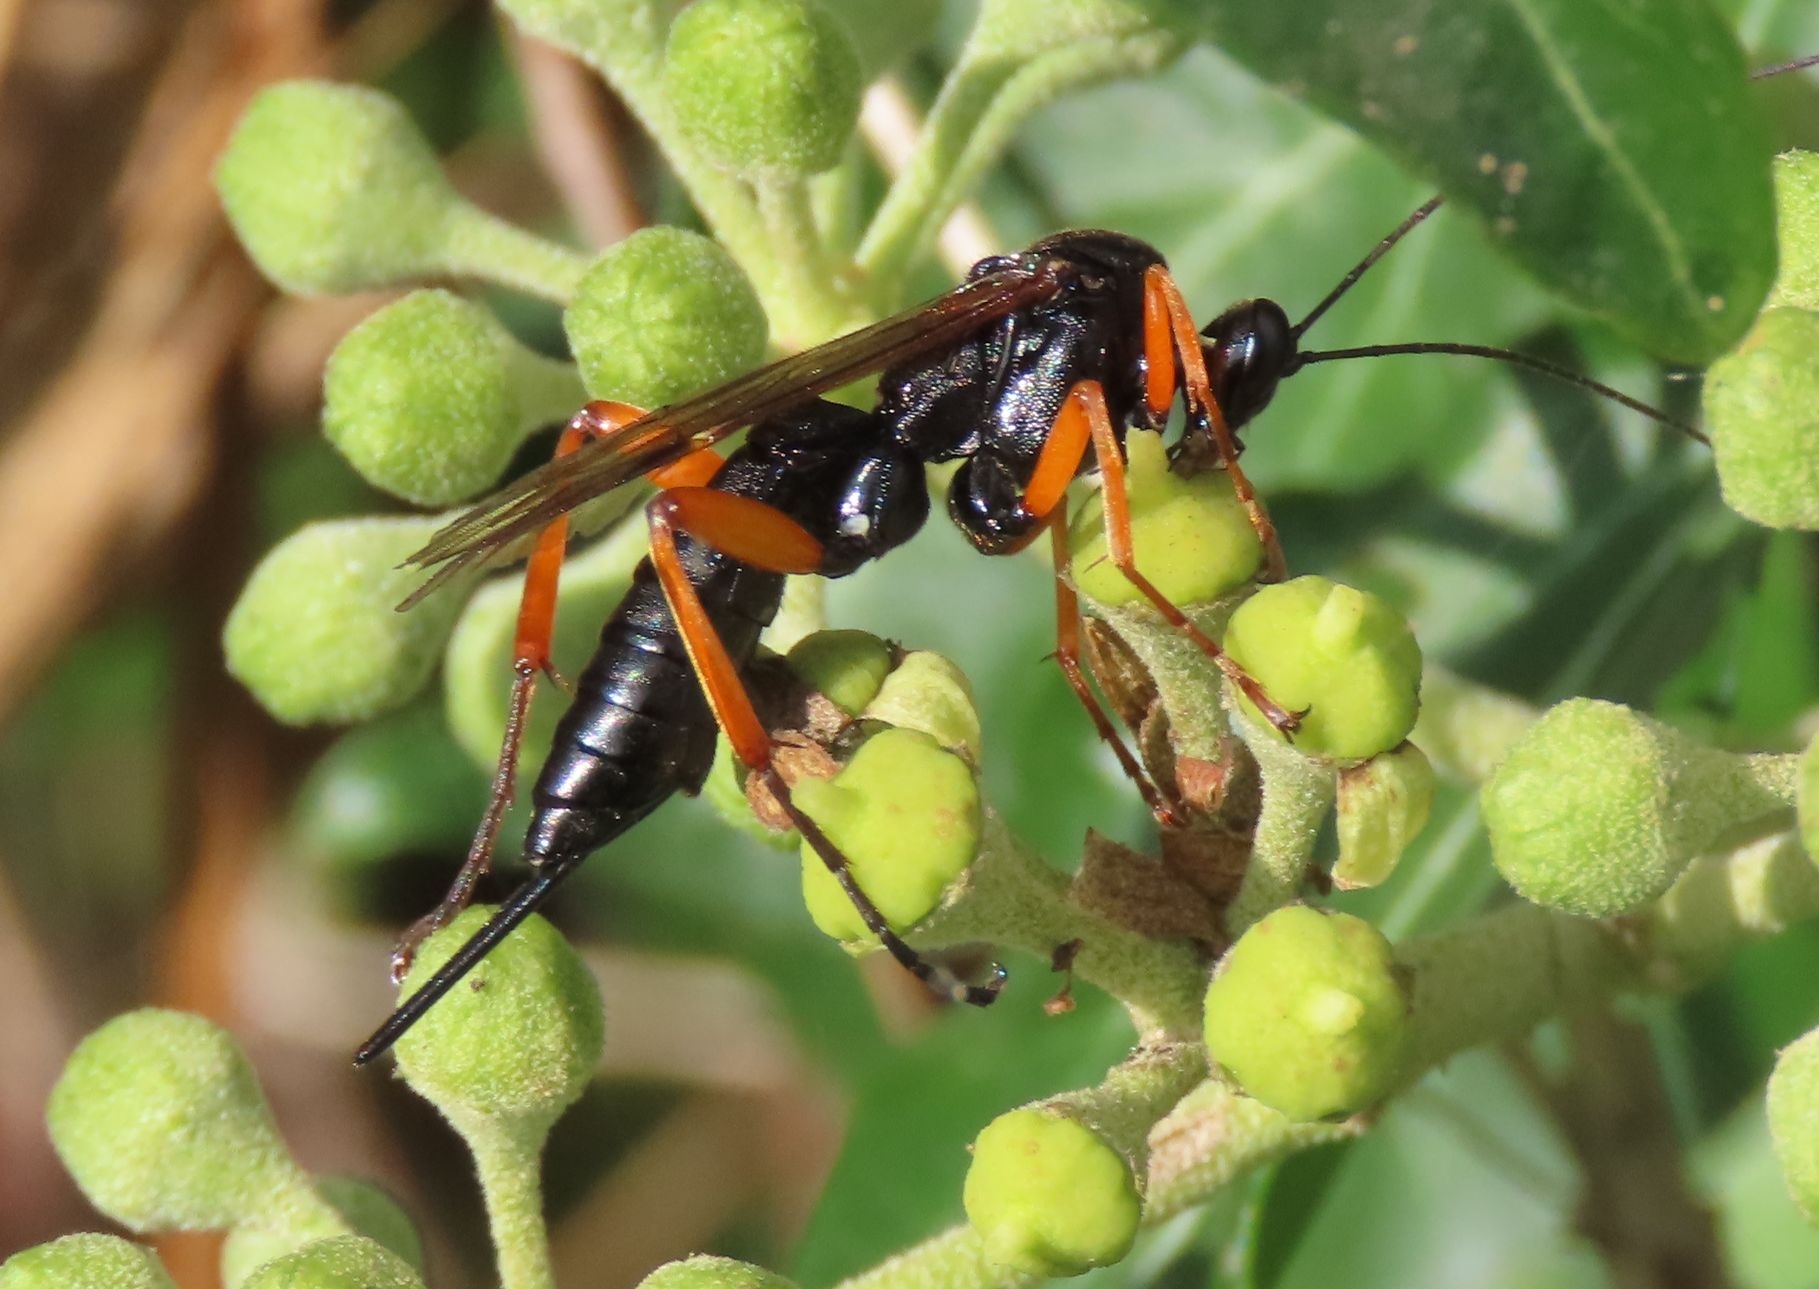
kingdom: Animalia
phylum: Arthropoda
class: Insecta
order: Hymenoptera
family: Ichneumonidae
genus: Pimpla
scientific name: Pimpla rufipes
